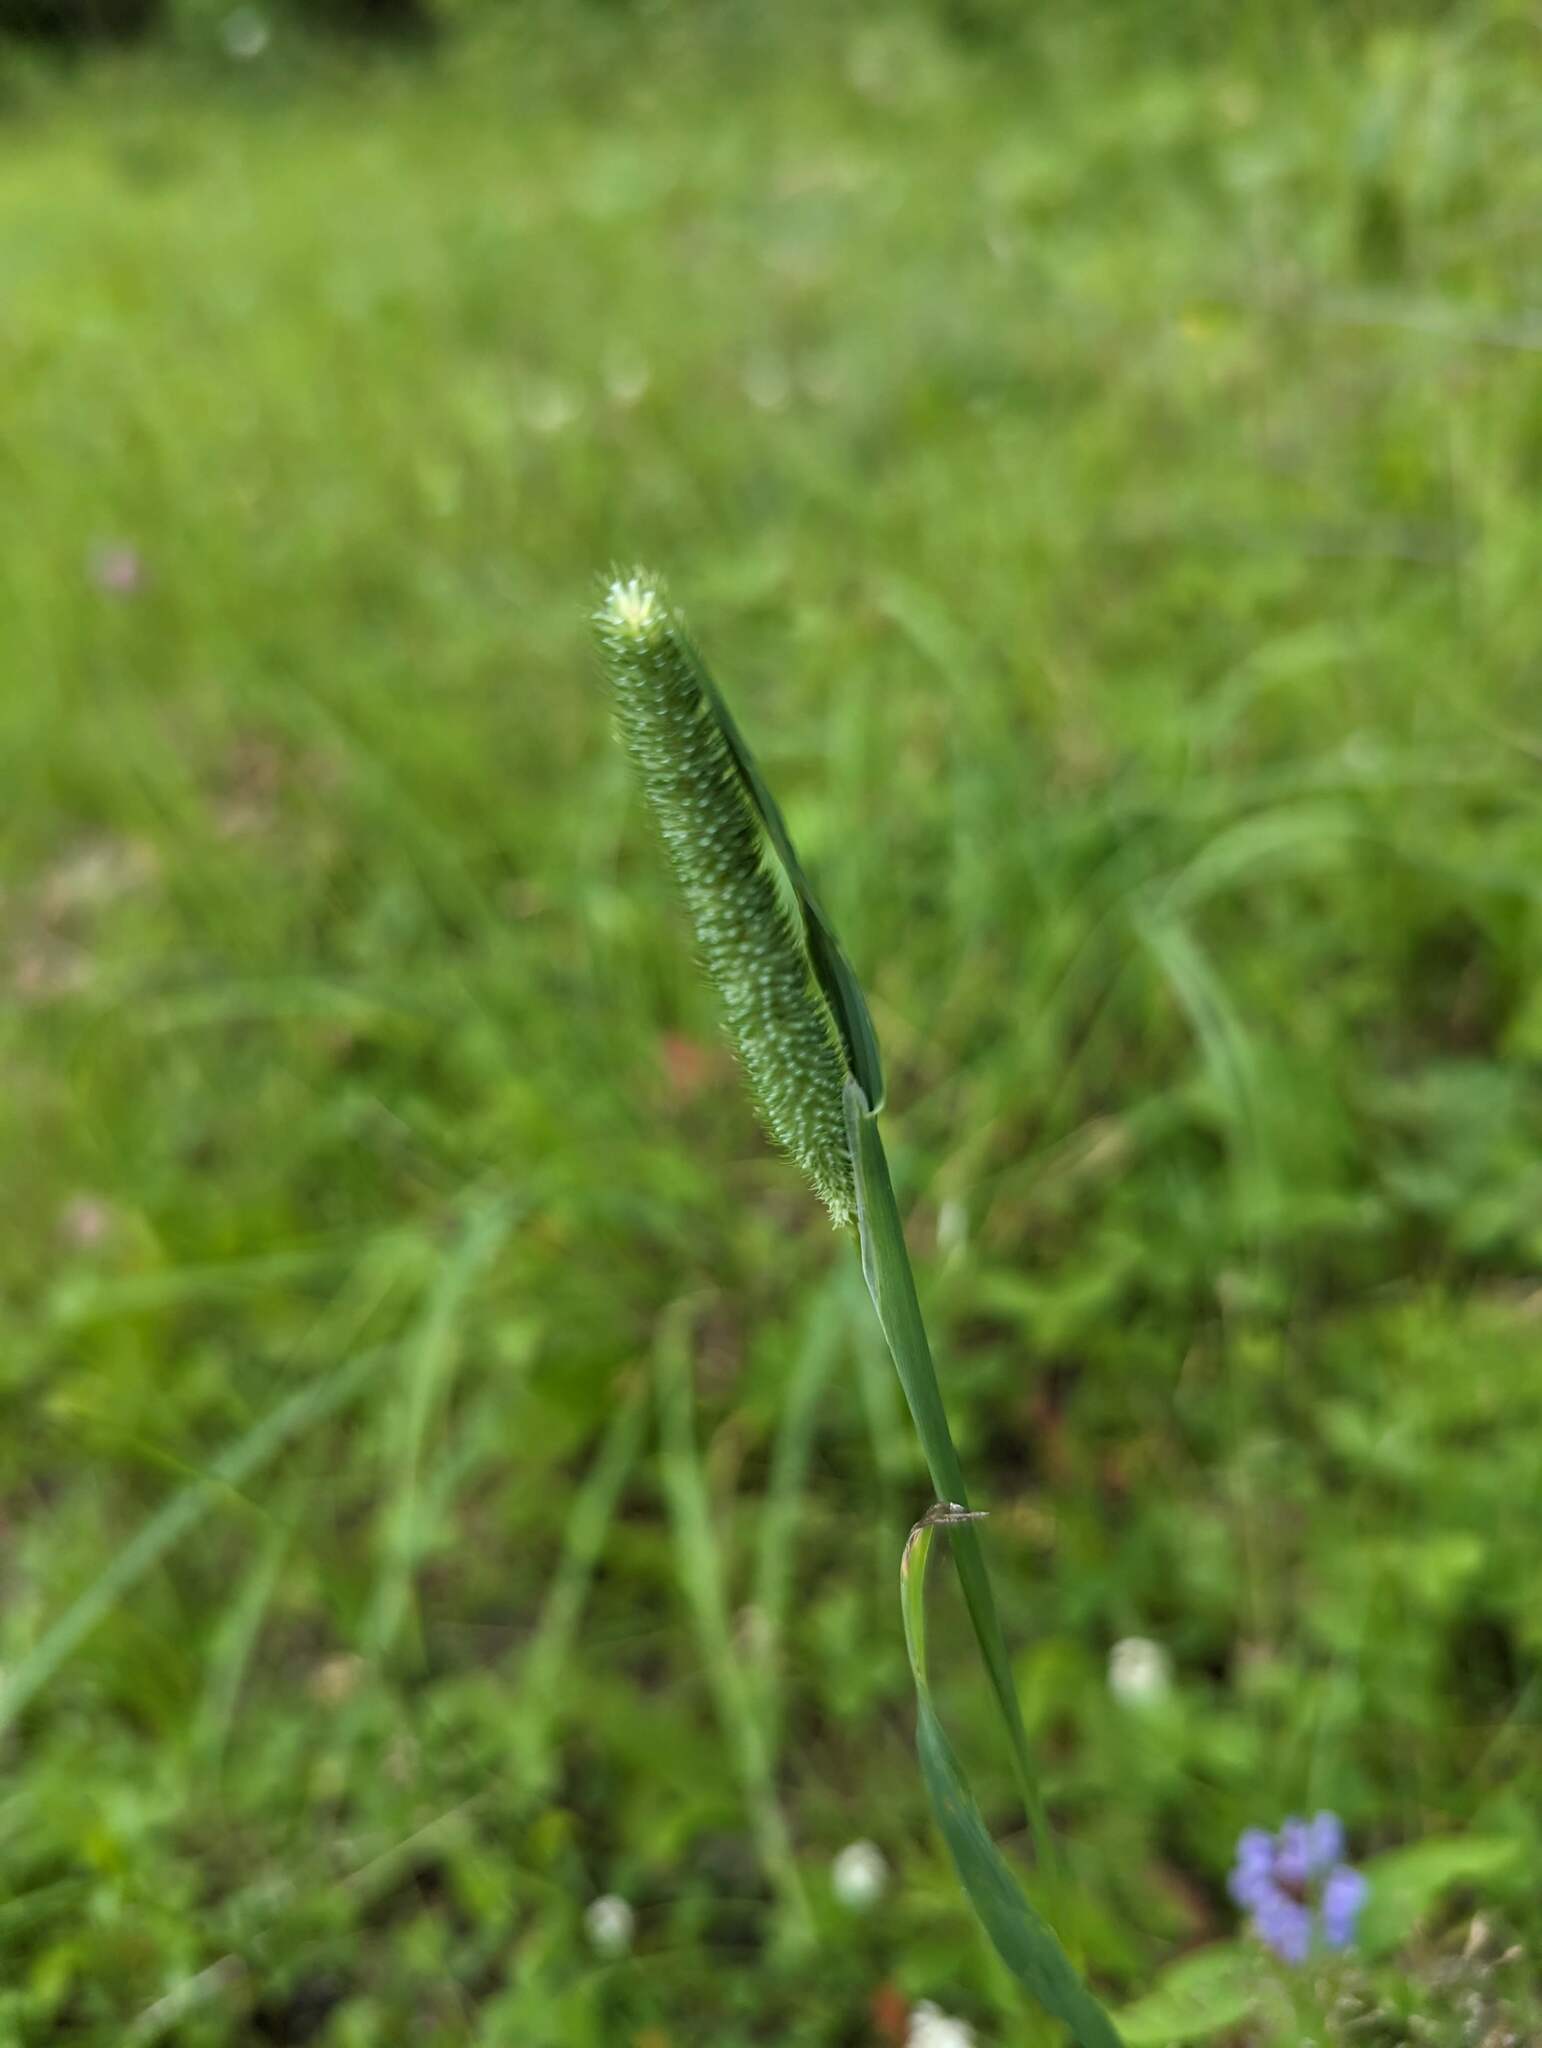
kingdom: Plantae
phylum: Tracheophyta
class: Liliopsida
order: Poales
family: Poaceae
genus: Phleum
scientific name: Phleum pratense
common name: Timothy grass
